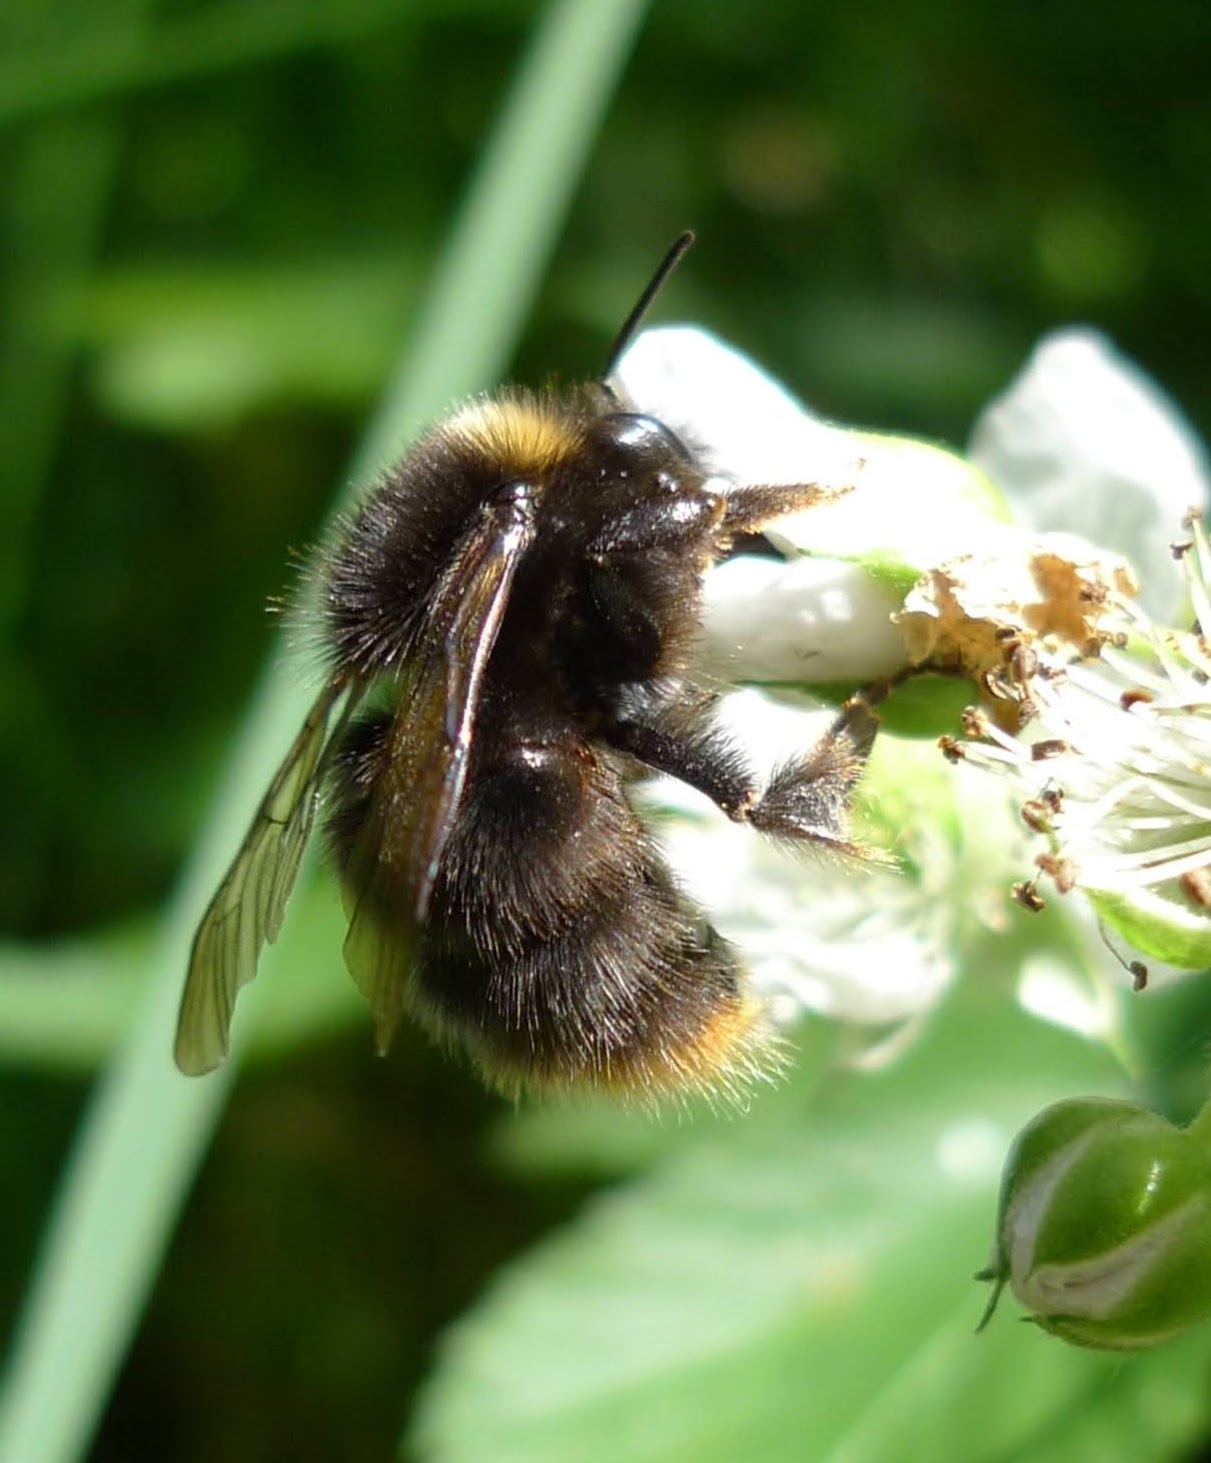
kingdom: Animalia
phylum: Arthropoda
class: Insecta
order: Hymenoptera
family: Apidae
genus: Bombus
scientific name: Bombus pratorum
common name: Early humble-bee
